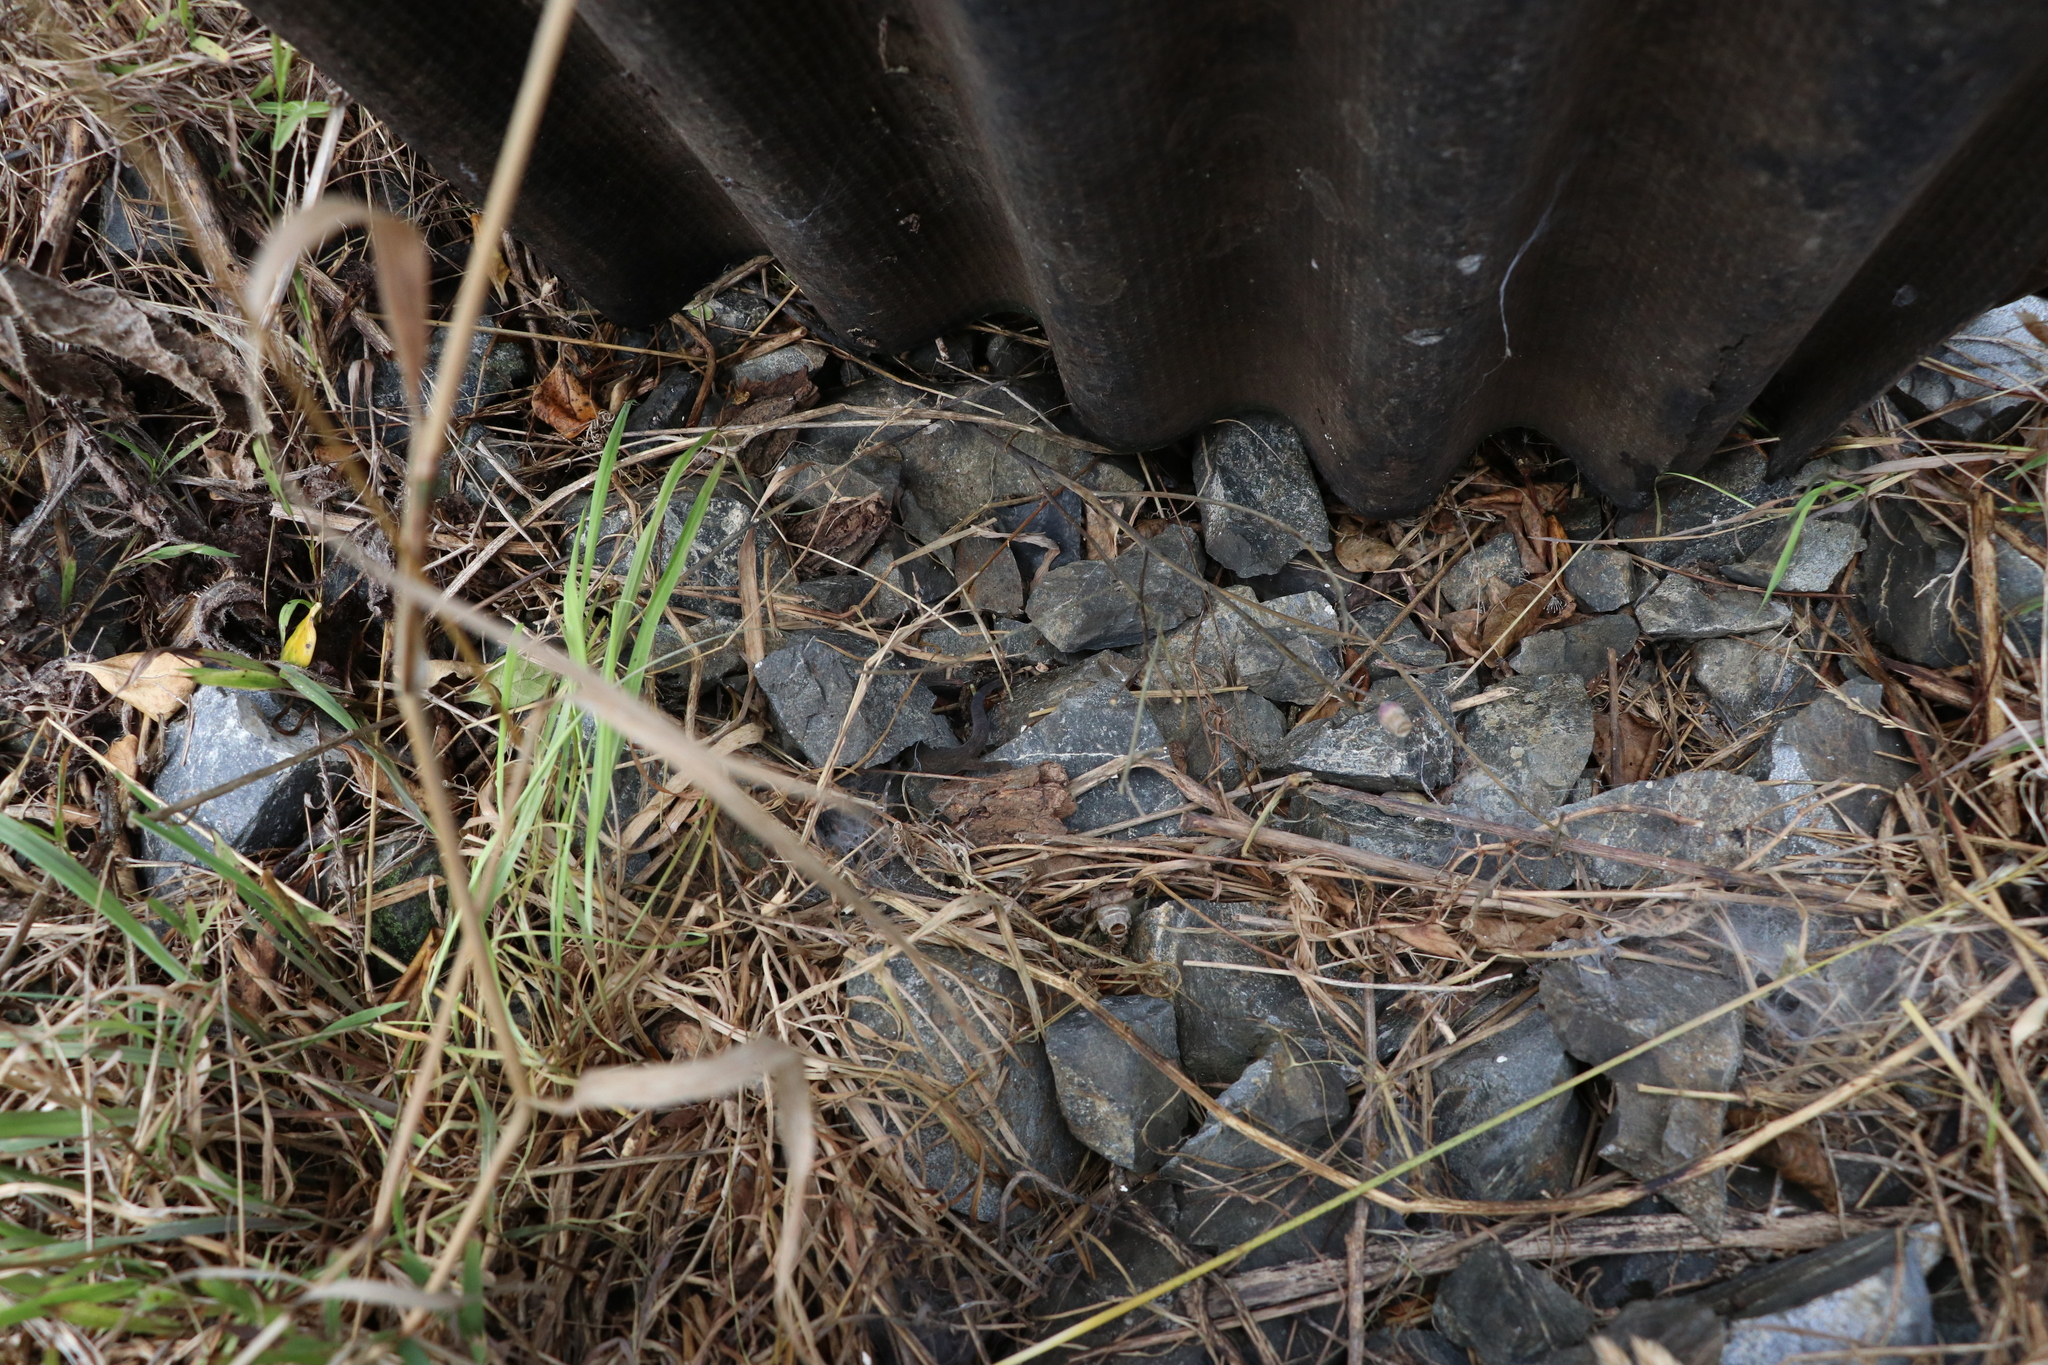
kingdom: Animalia
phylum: Chordata
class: Squamata
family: Diplodactylidae
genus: Woodworthia
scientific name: Woodworthia maculata
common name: Raukawa gecko
